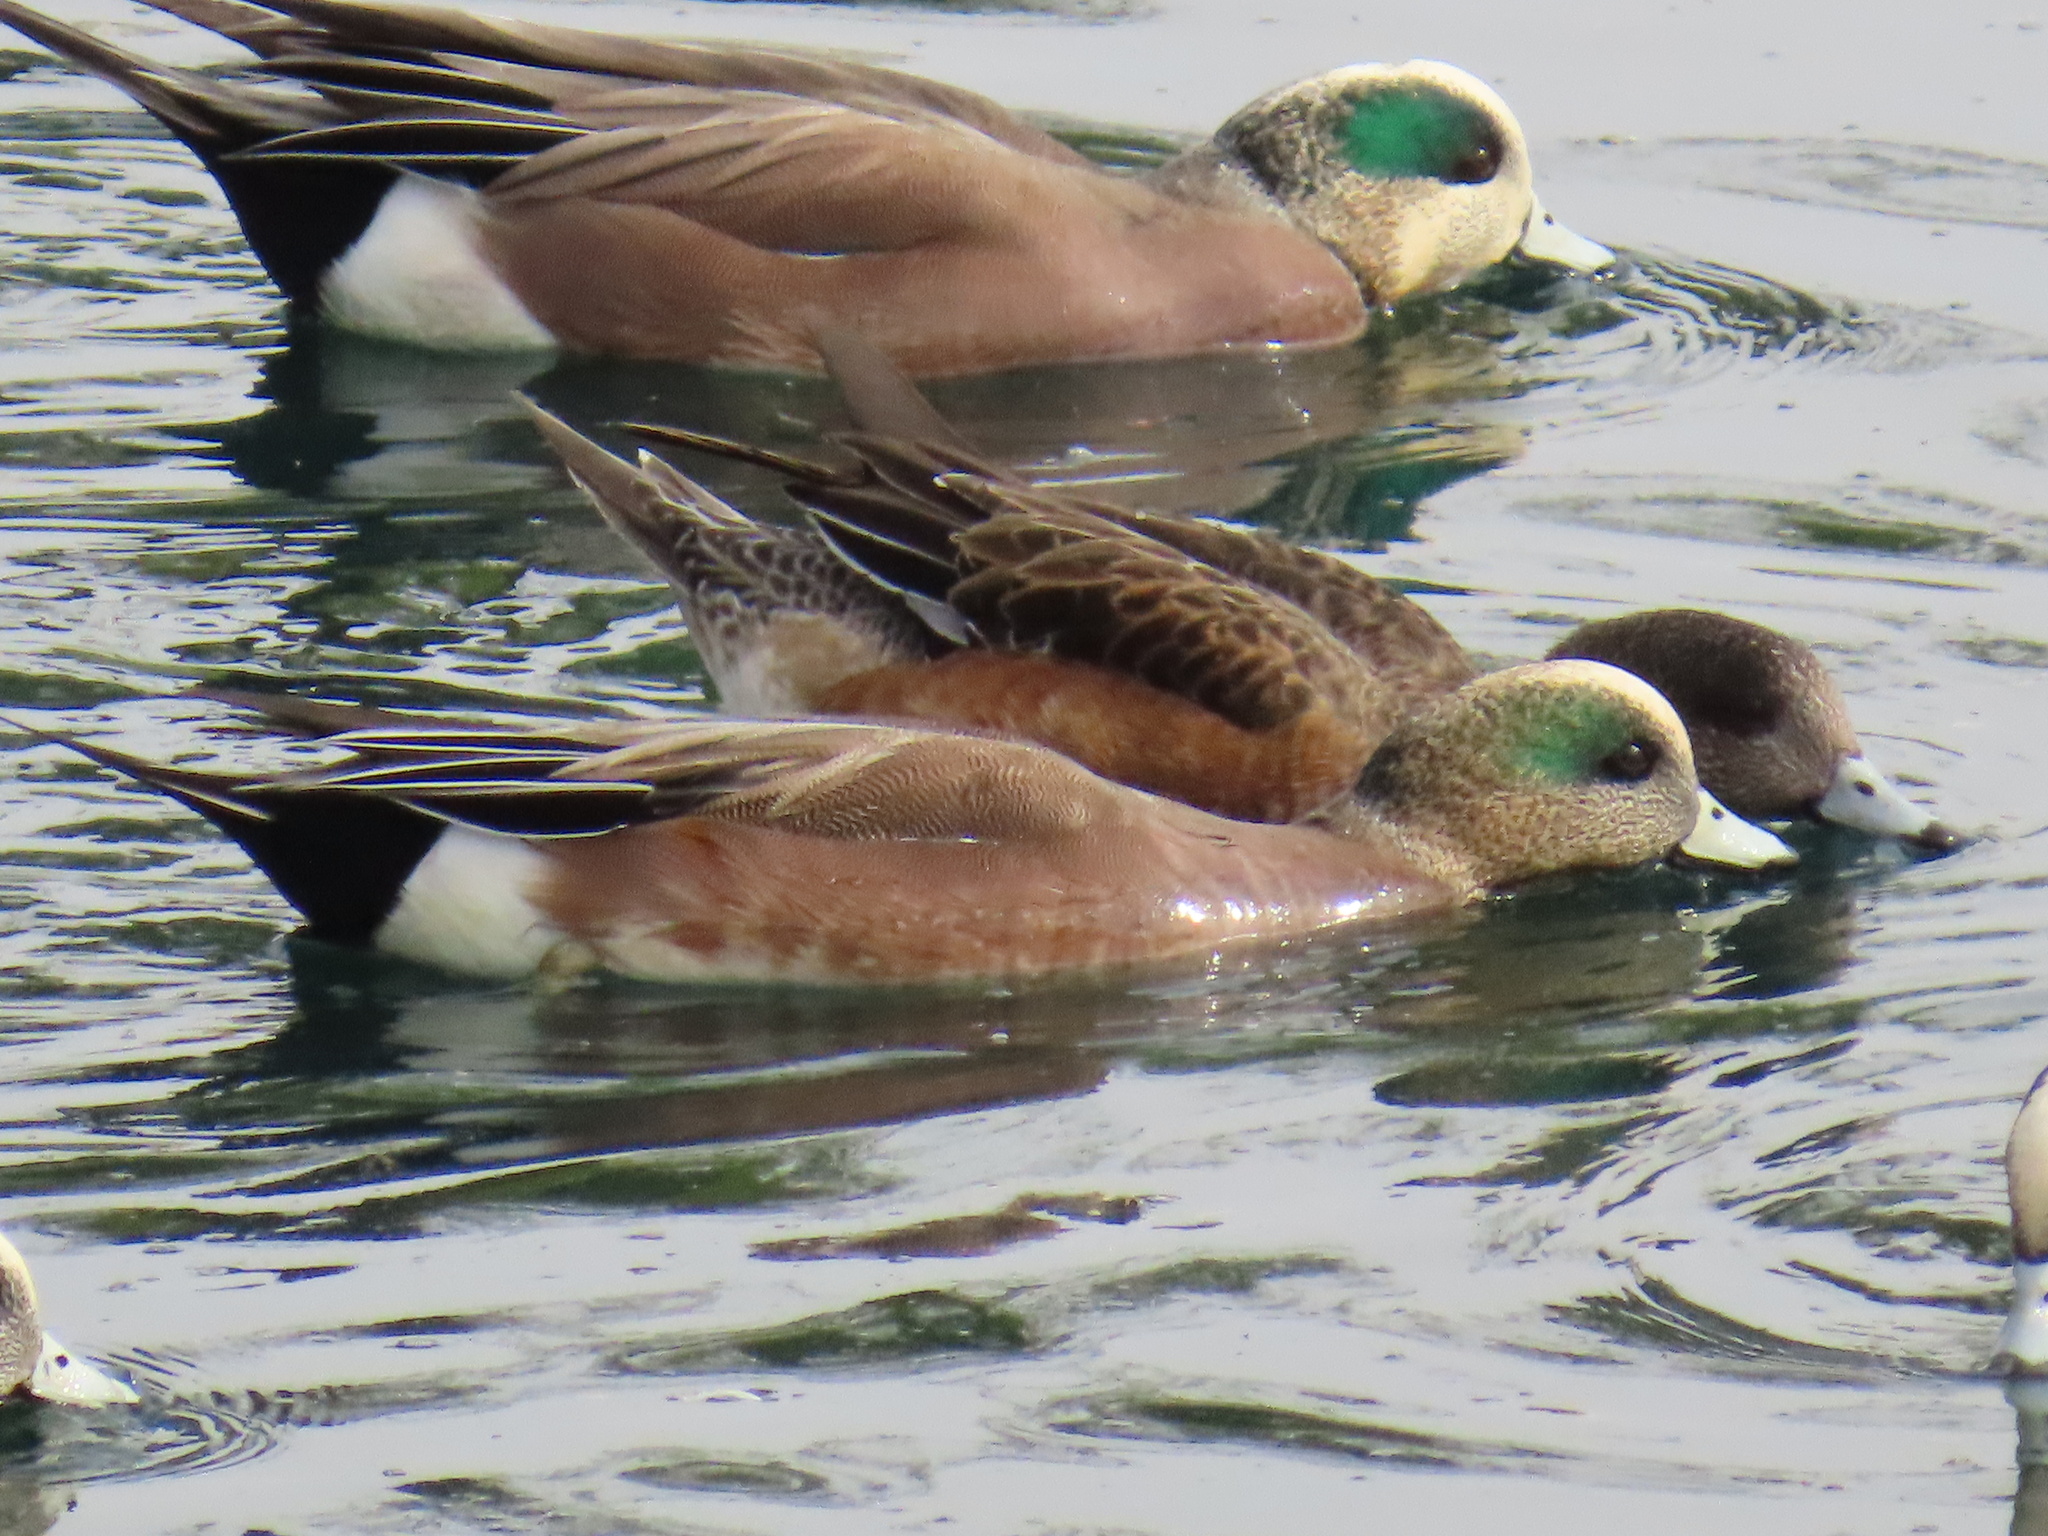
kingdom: Animalia
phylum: Chordata
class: Aves
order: Anseriformes
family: Anatidae
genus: Mareca
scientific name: Mareca americana
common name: American wigeon
